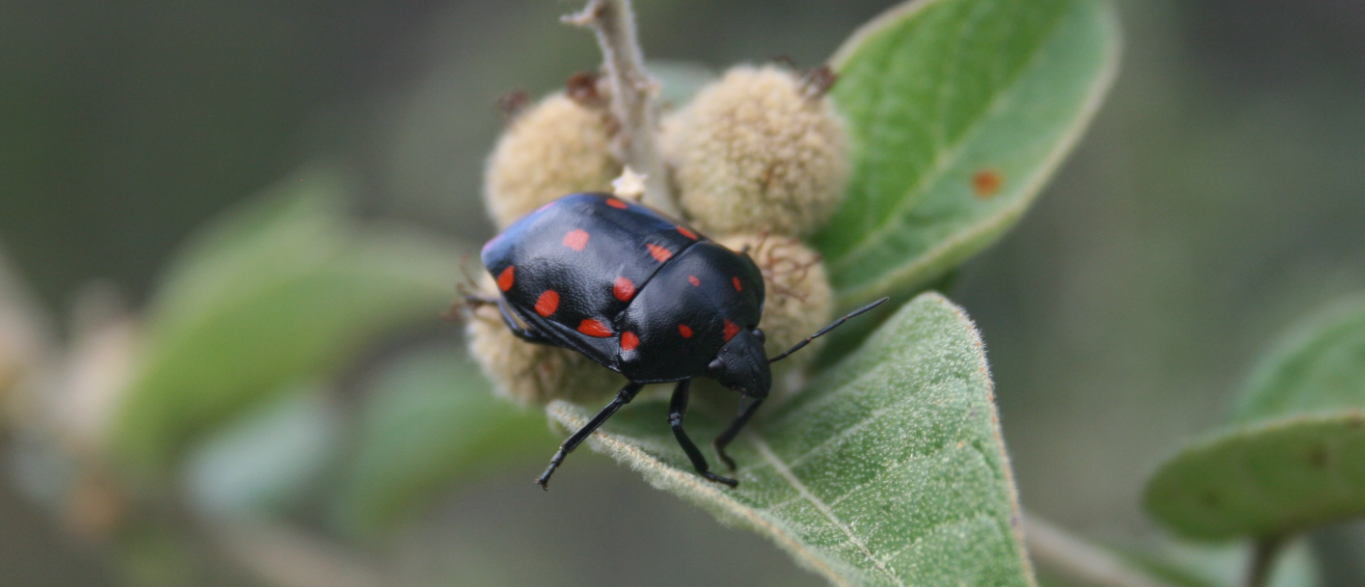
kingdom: Animalia
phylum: Arthropoda
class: Insecta
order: Hemiptera
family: Scutelleridae
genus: Pachycoris
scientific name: Pachycoris klugii
